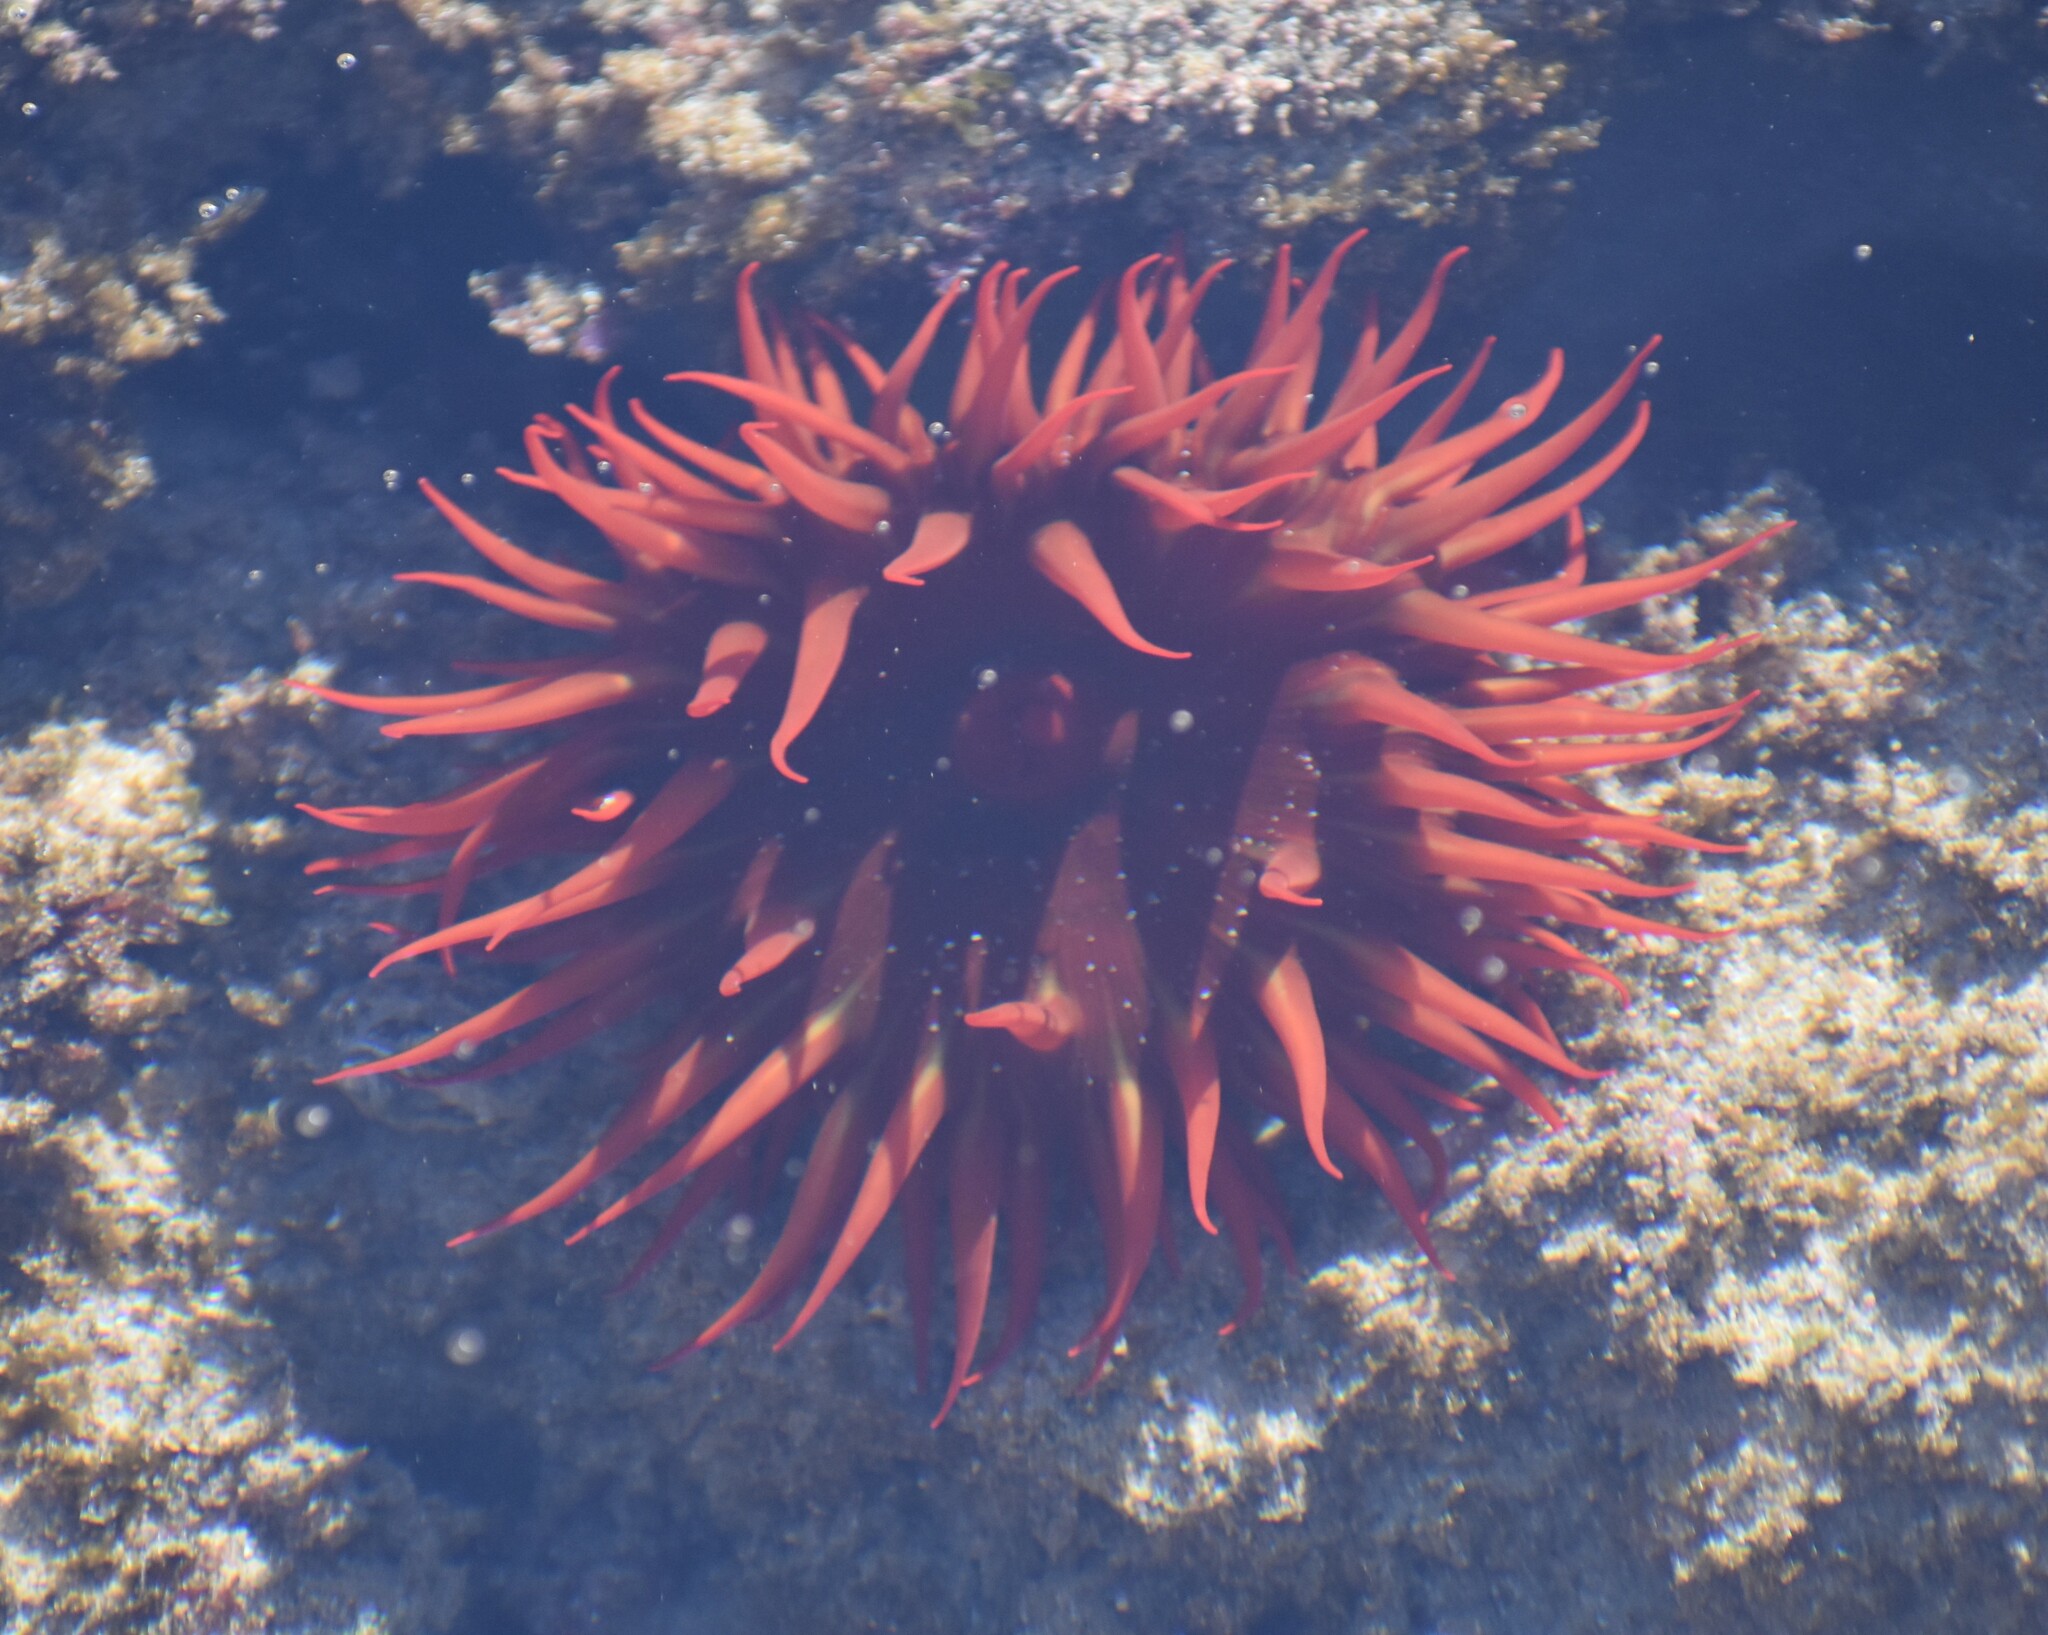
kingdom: Animalia
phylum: Cnidaria
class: Anthozoa
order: Actiniaria
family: Actiniidae
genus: Pseudactinia
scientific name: Pseudactinia flagellifera
